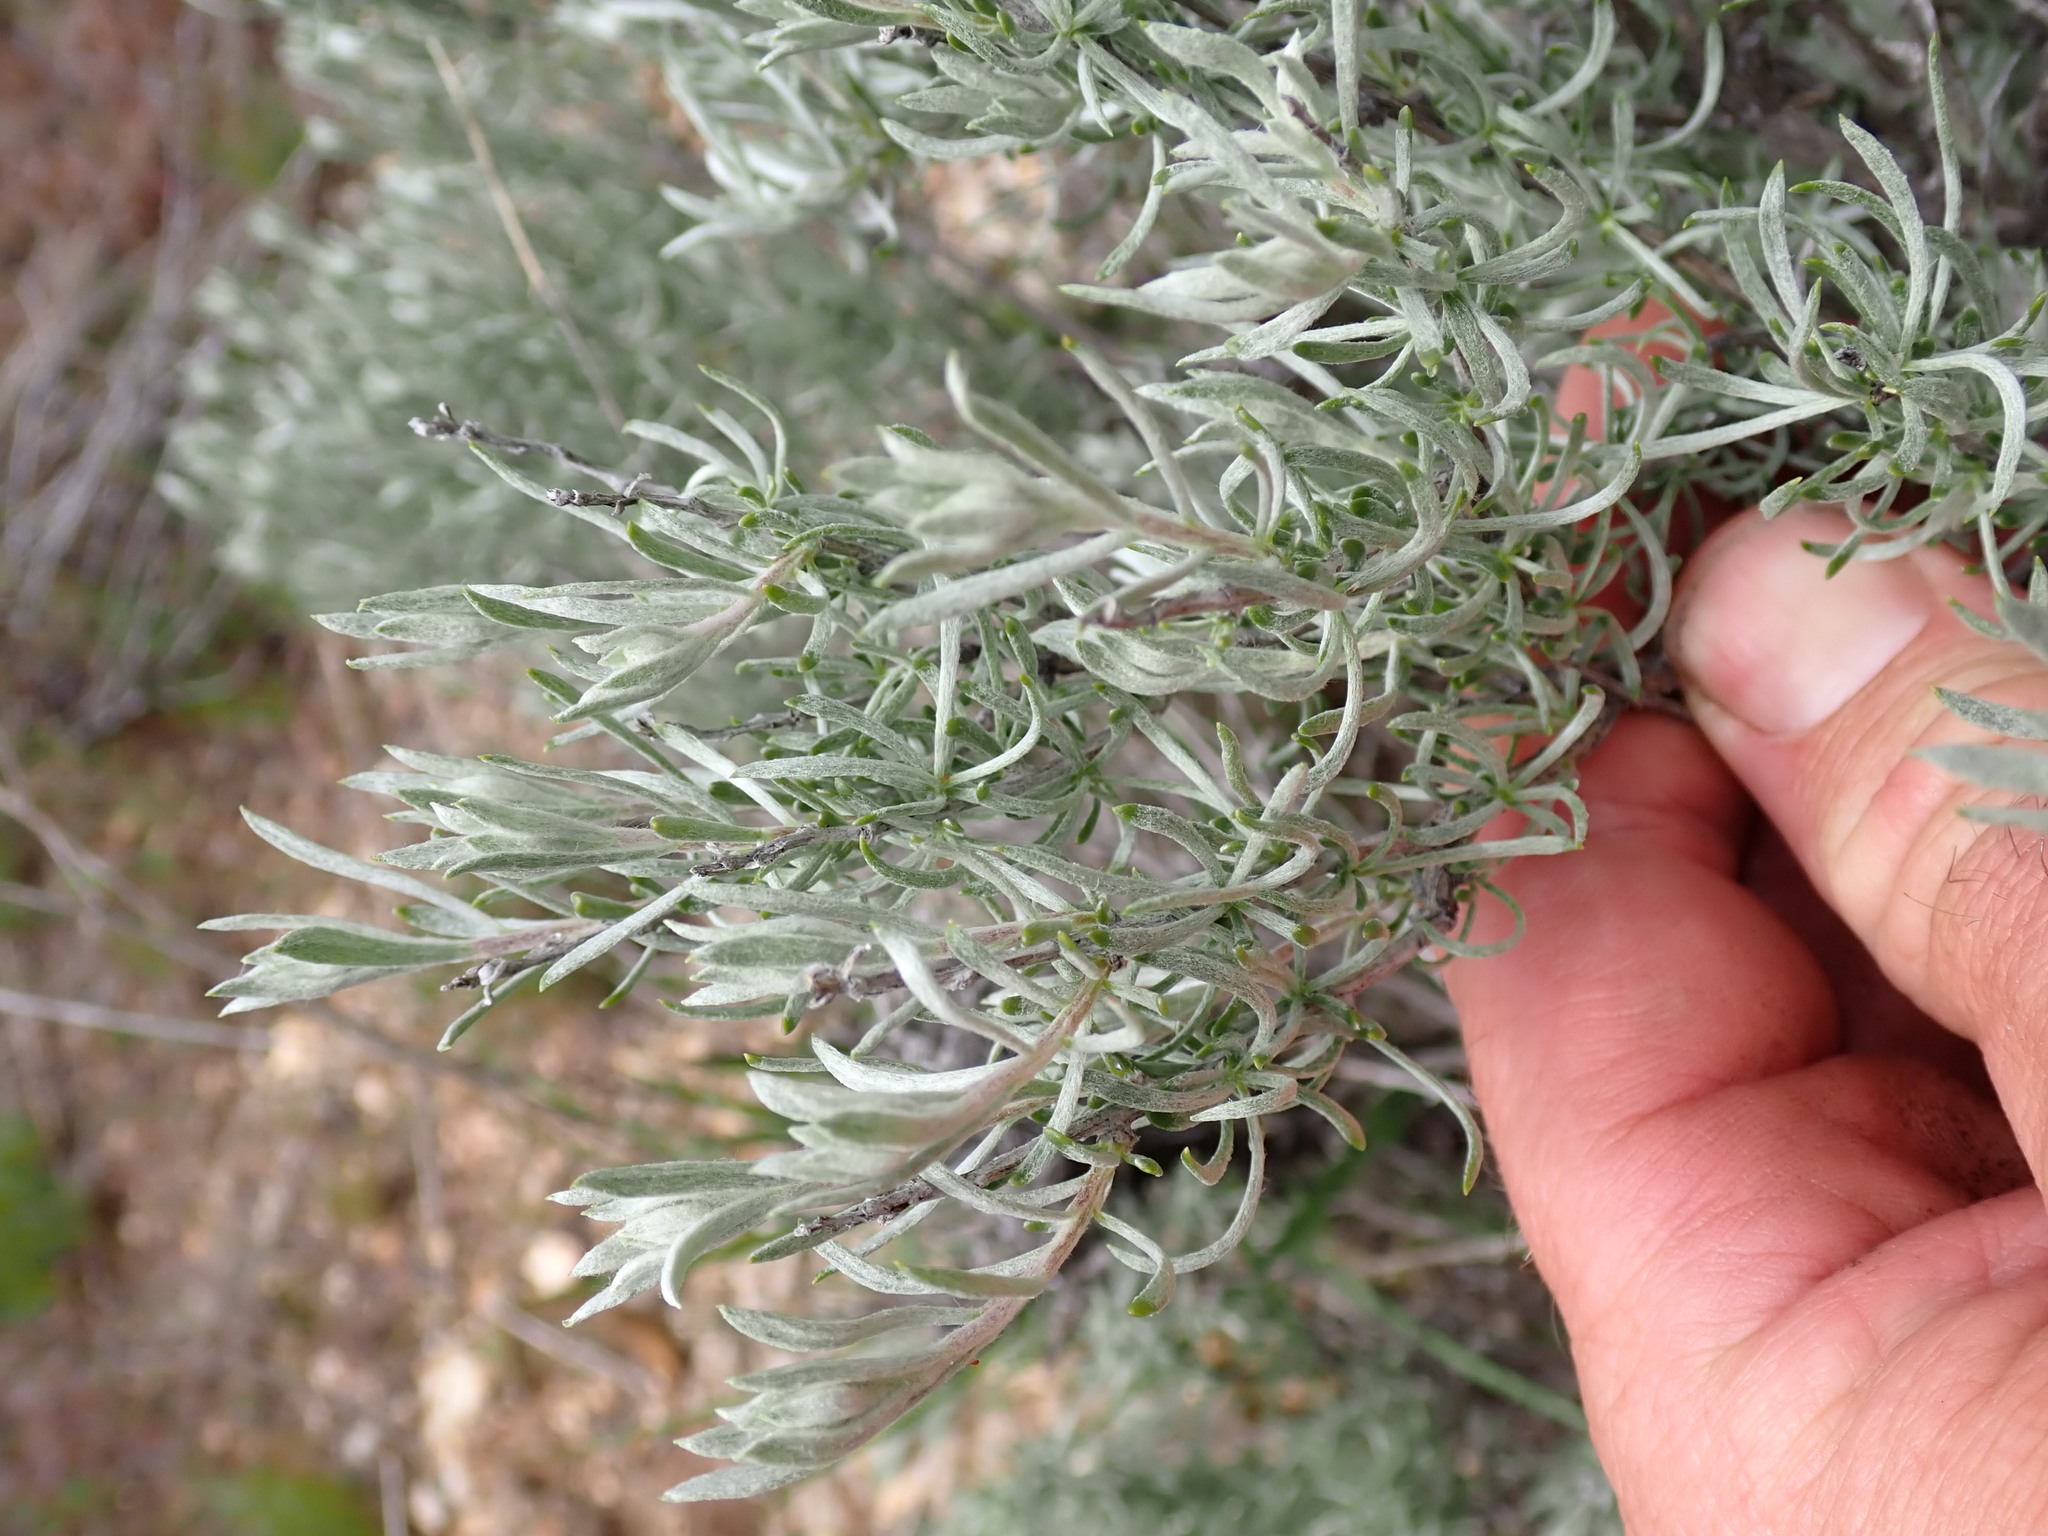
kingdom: Plantae
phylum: Tracheophyta
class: Magnoliopsida
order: Asterales
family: Asteraceae
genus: Tetradymia
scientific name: Tetradymia canescens
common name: Spineless horsebrush
